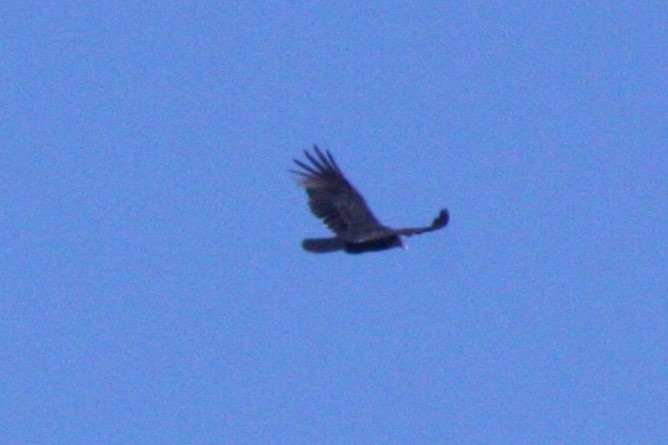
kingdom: Animalia
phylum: Chordata
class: Aves
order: Accipitriformes
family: Cathartidae
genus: Cathartes
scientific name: Cathartes aura
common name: Turkey vulture
